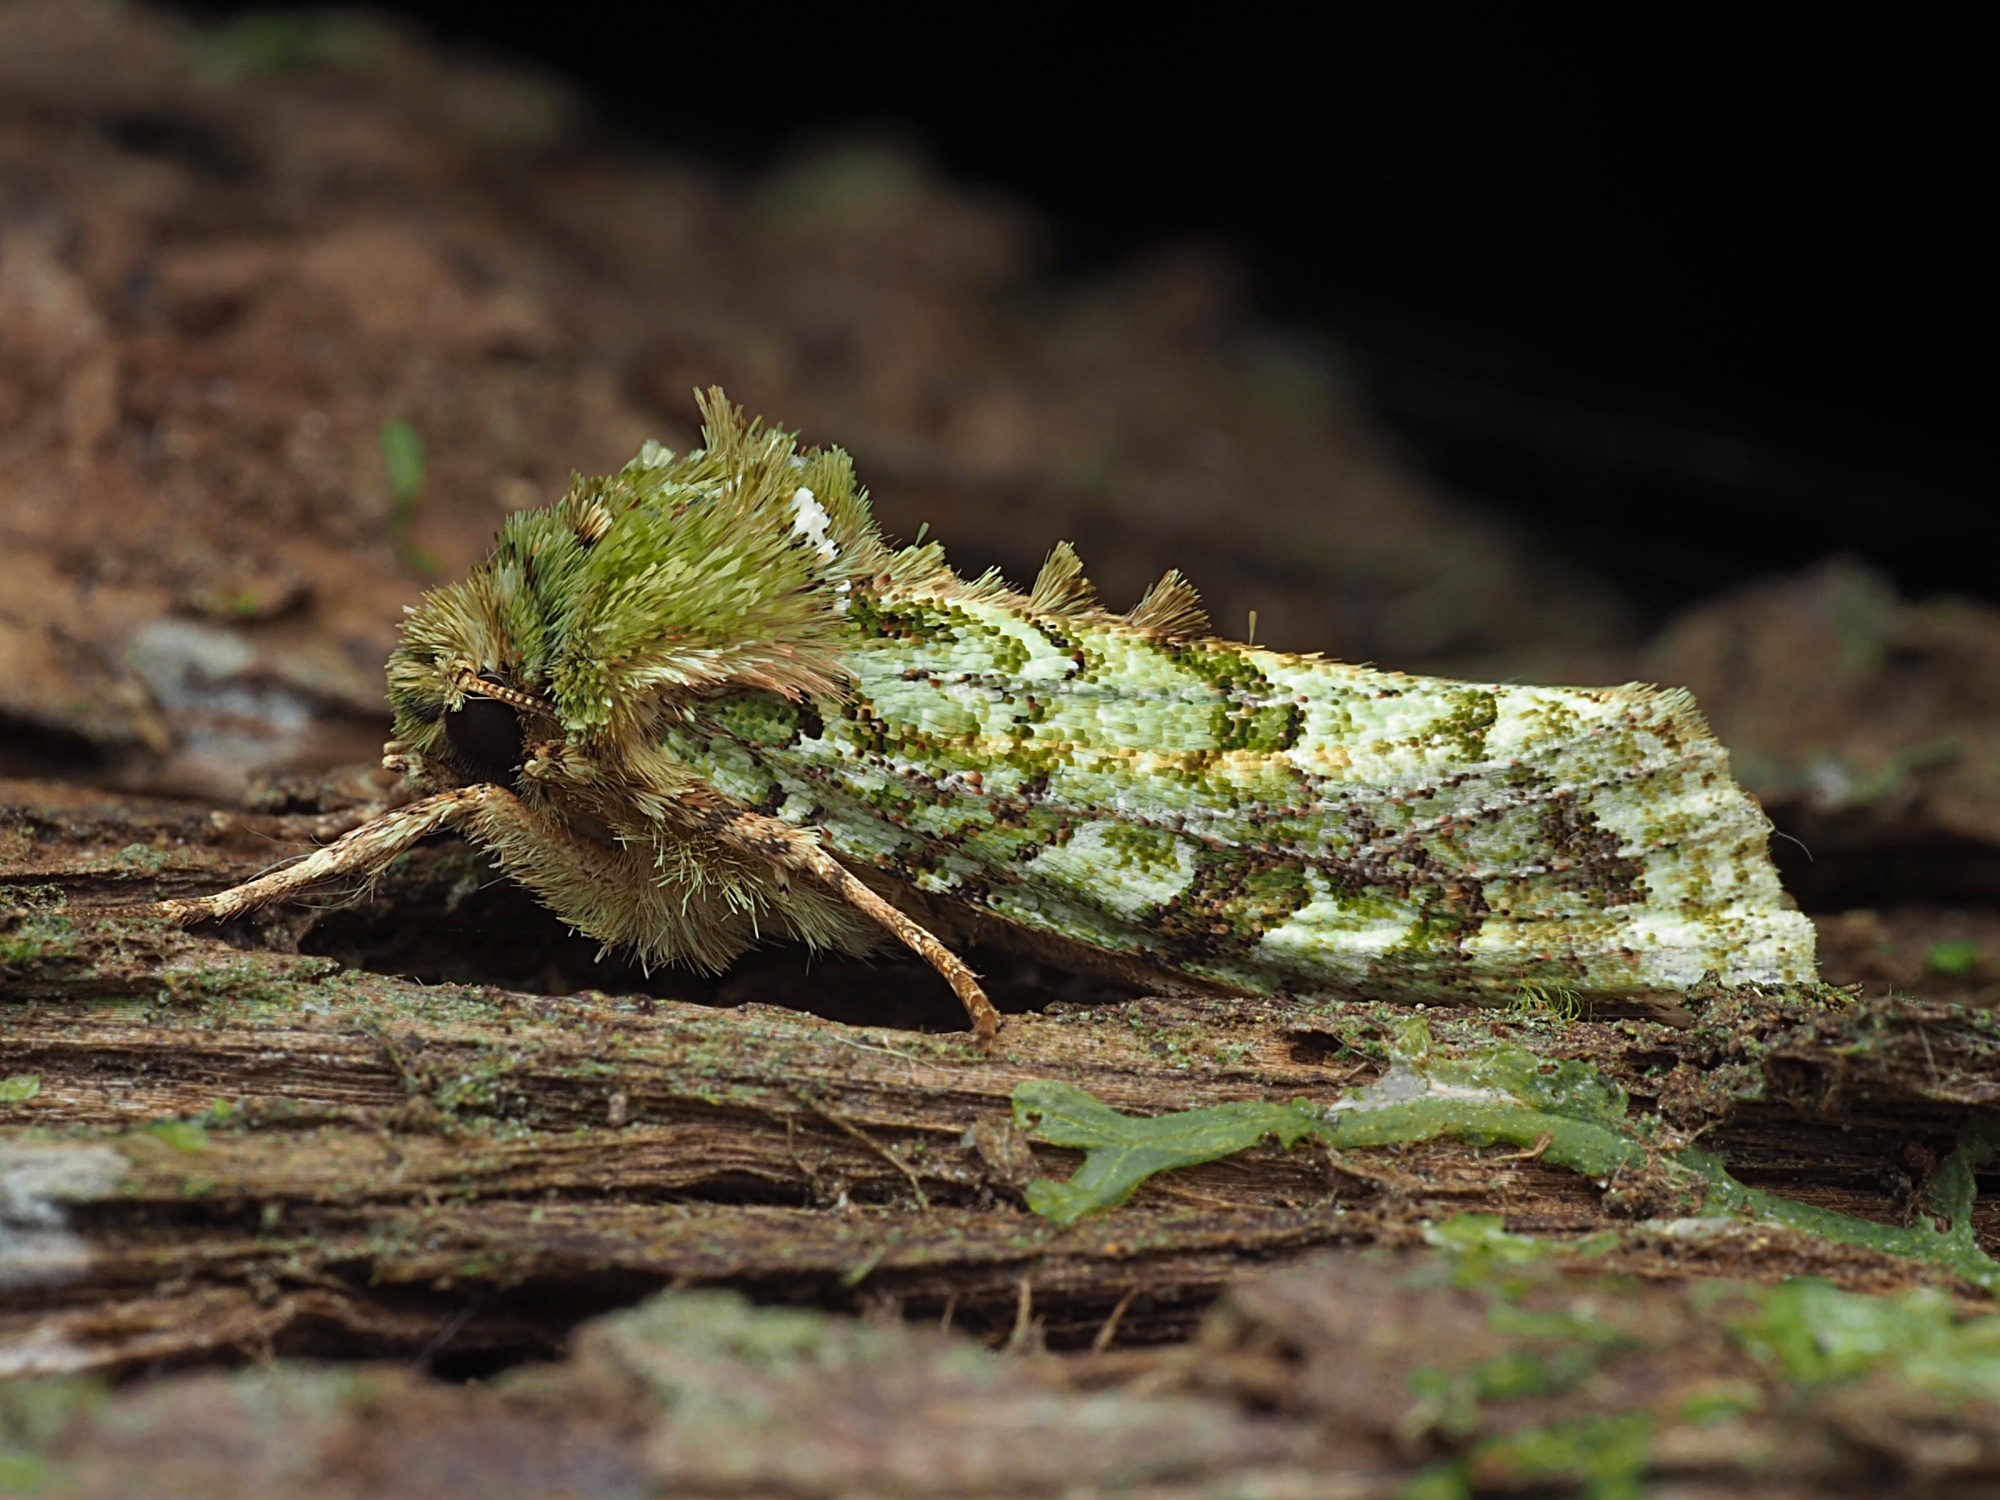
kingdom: Animalia
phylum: Arthropoda
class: Insecta
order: Lepidoptera
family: Noctuidae
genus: Feredayia
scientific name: Feredayia grammosa
